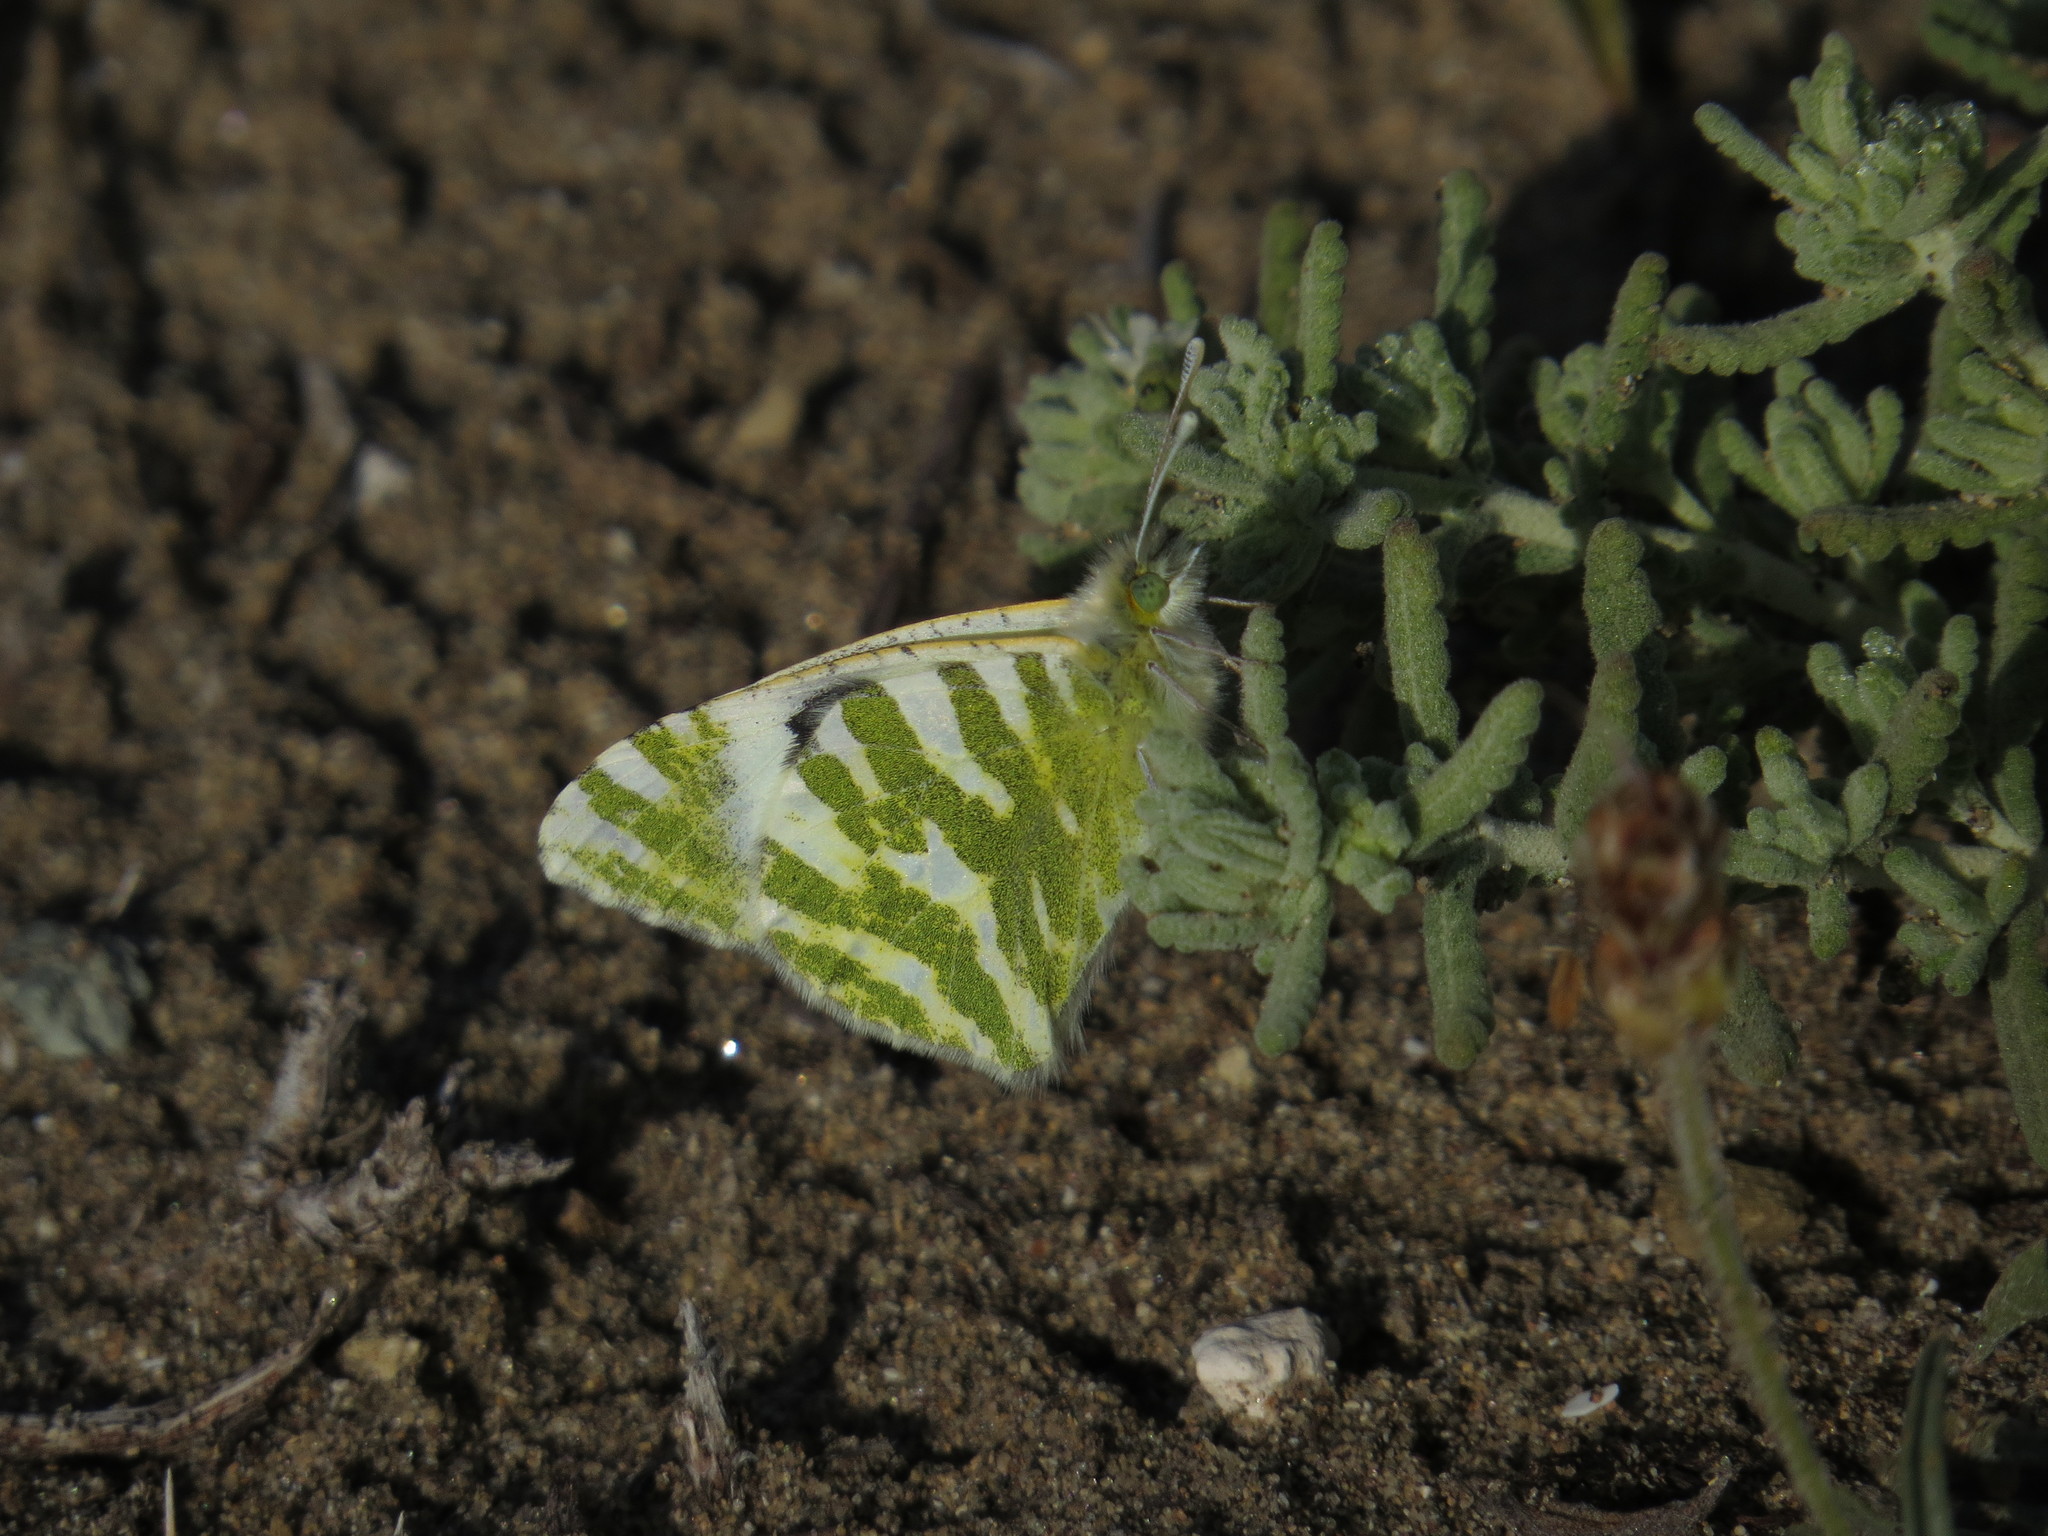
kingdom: Animalia
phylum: Arthropoda
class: Insecta
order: Lepidoptera
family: Pieridae
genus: Euchloe
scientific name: Euchloe belemia
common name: Green-striped white
